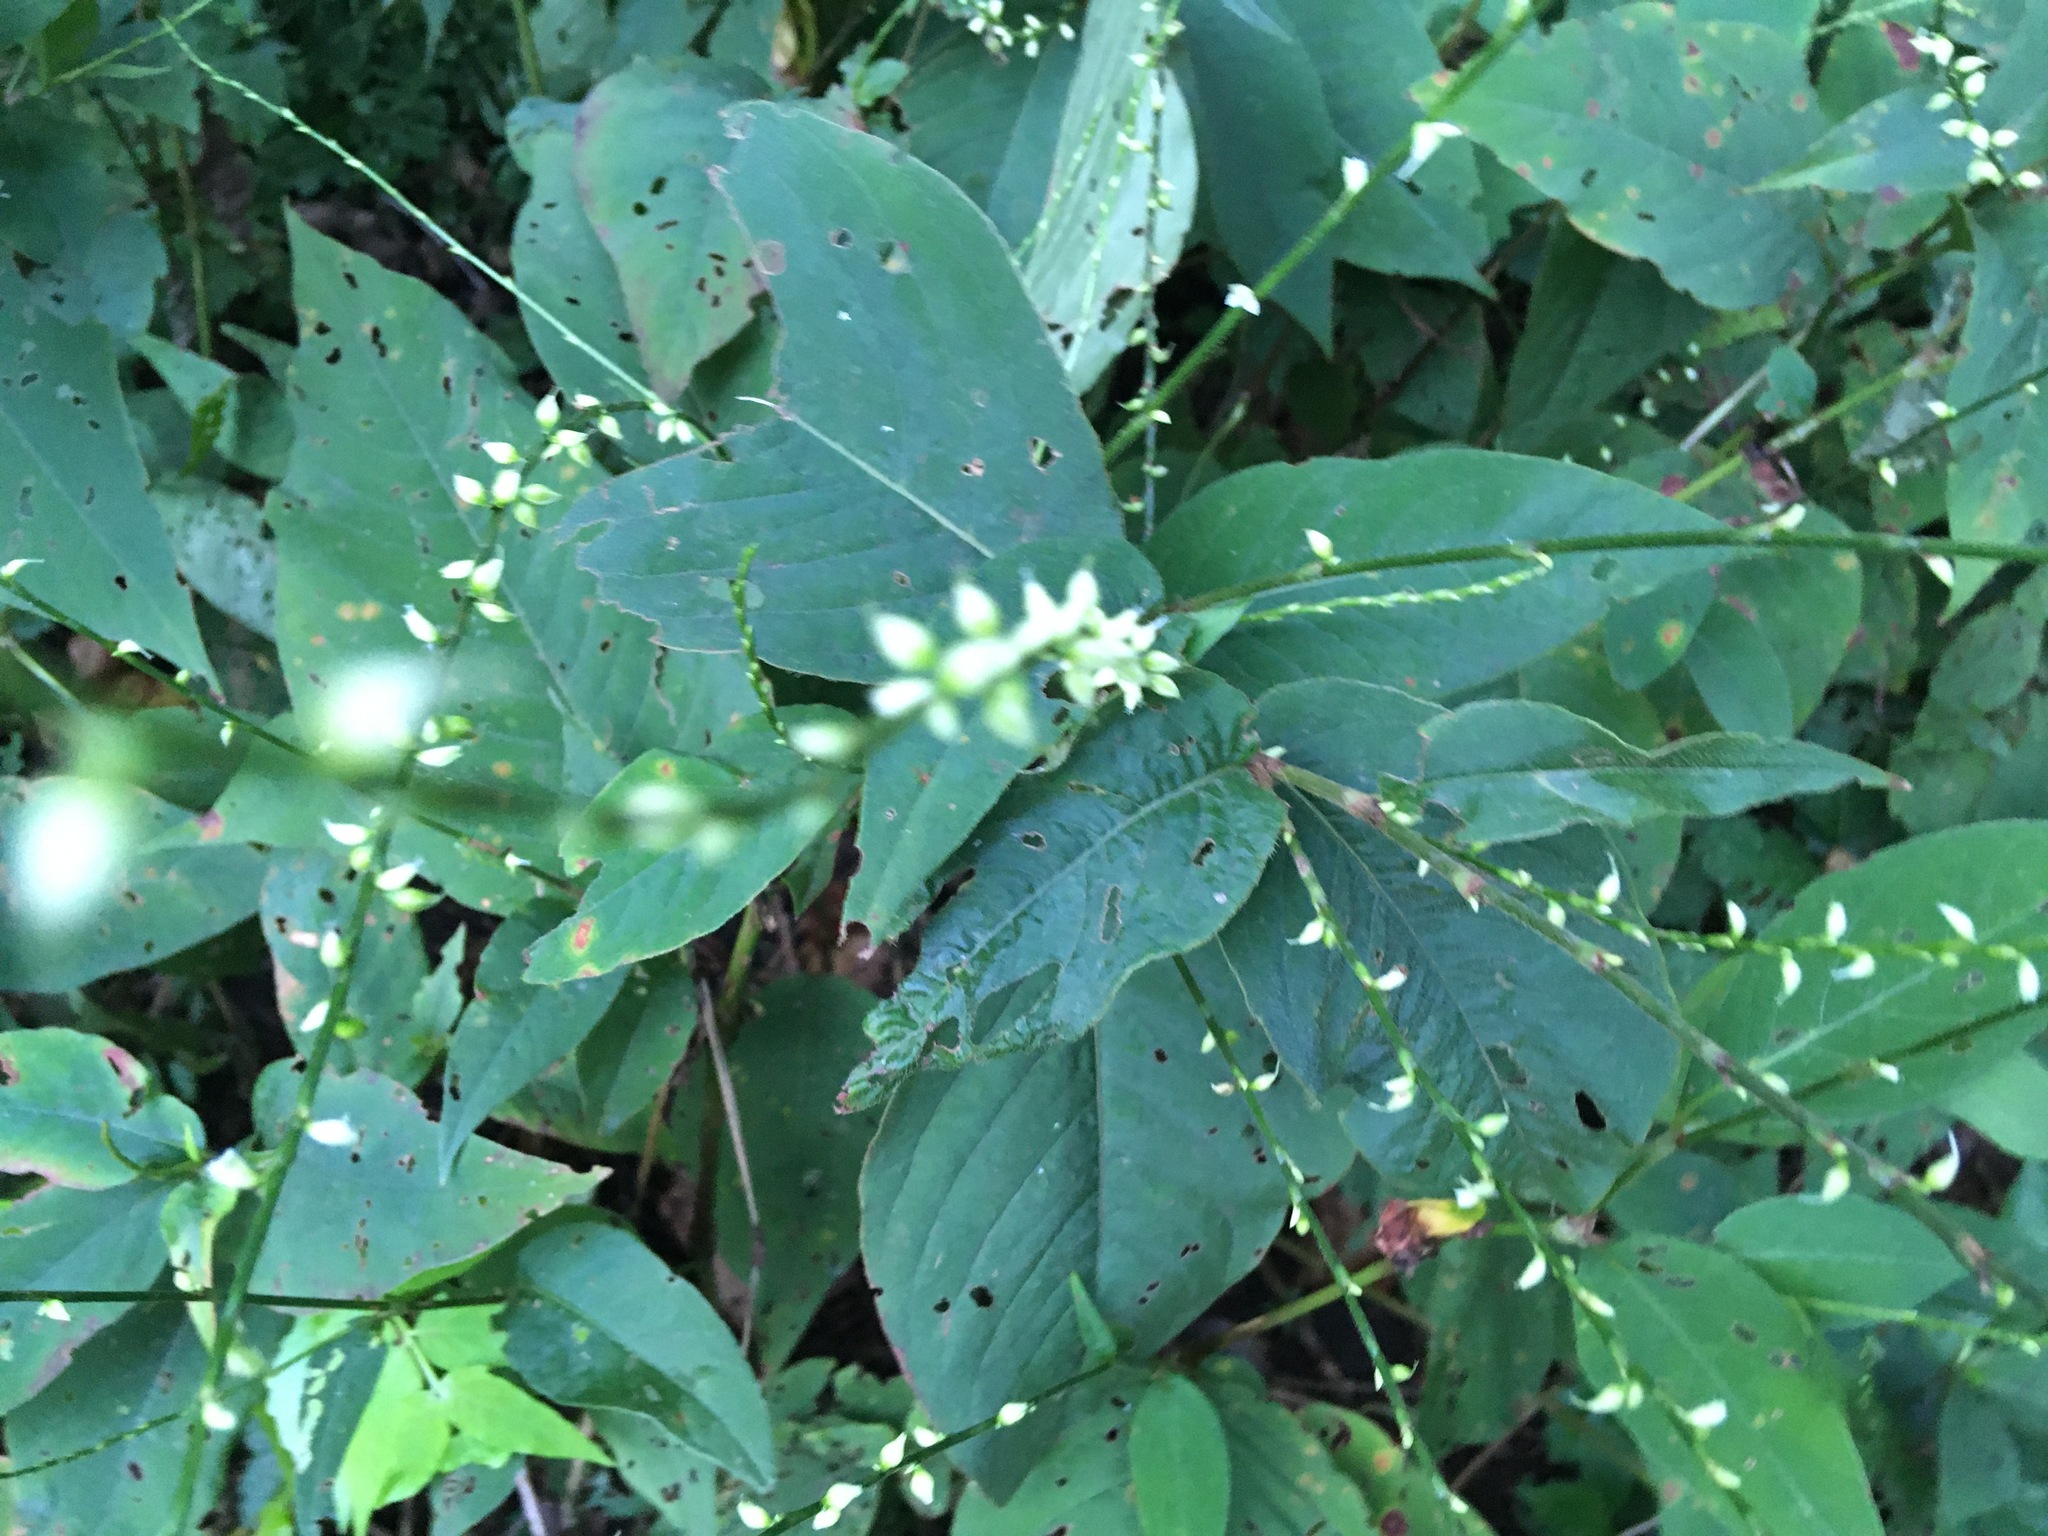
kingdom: Plantae
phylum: Tracheophyta
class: Magnoliopsida
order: Caryophyllales
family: Polygonaceae
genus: Persicaria
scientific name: Persicaria virginiana
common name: Jumpseed
